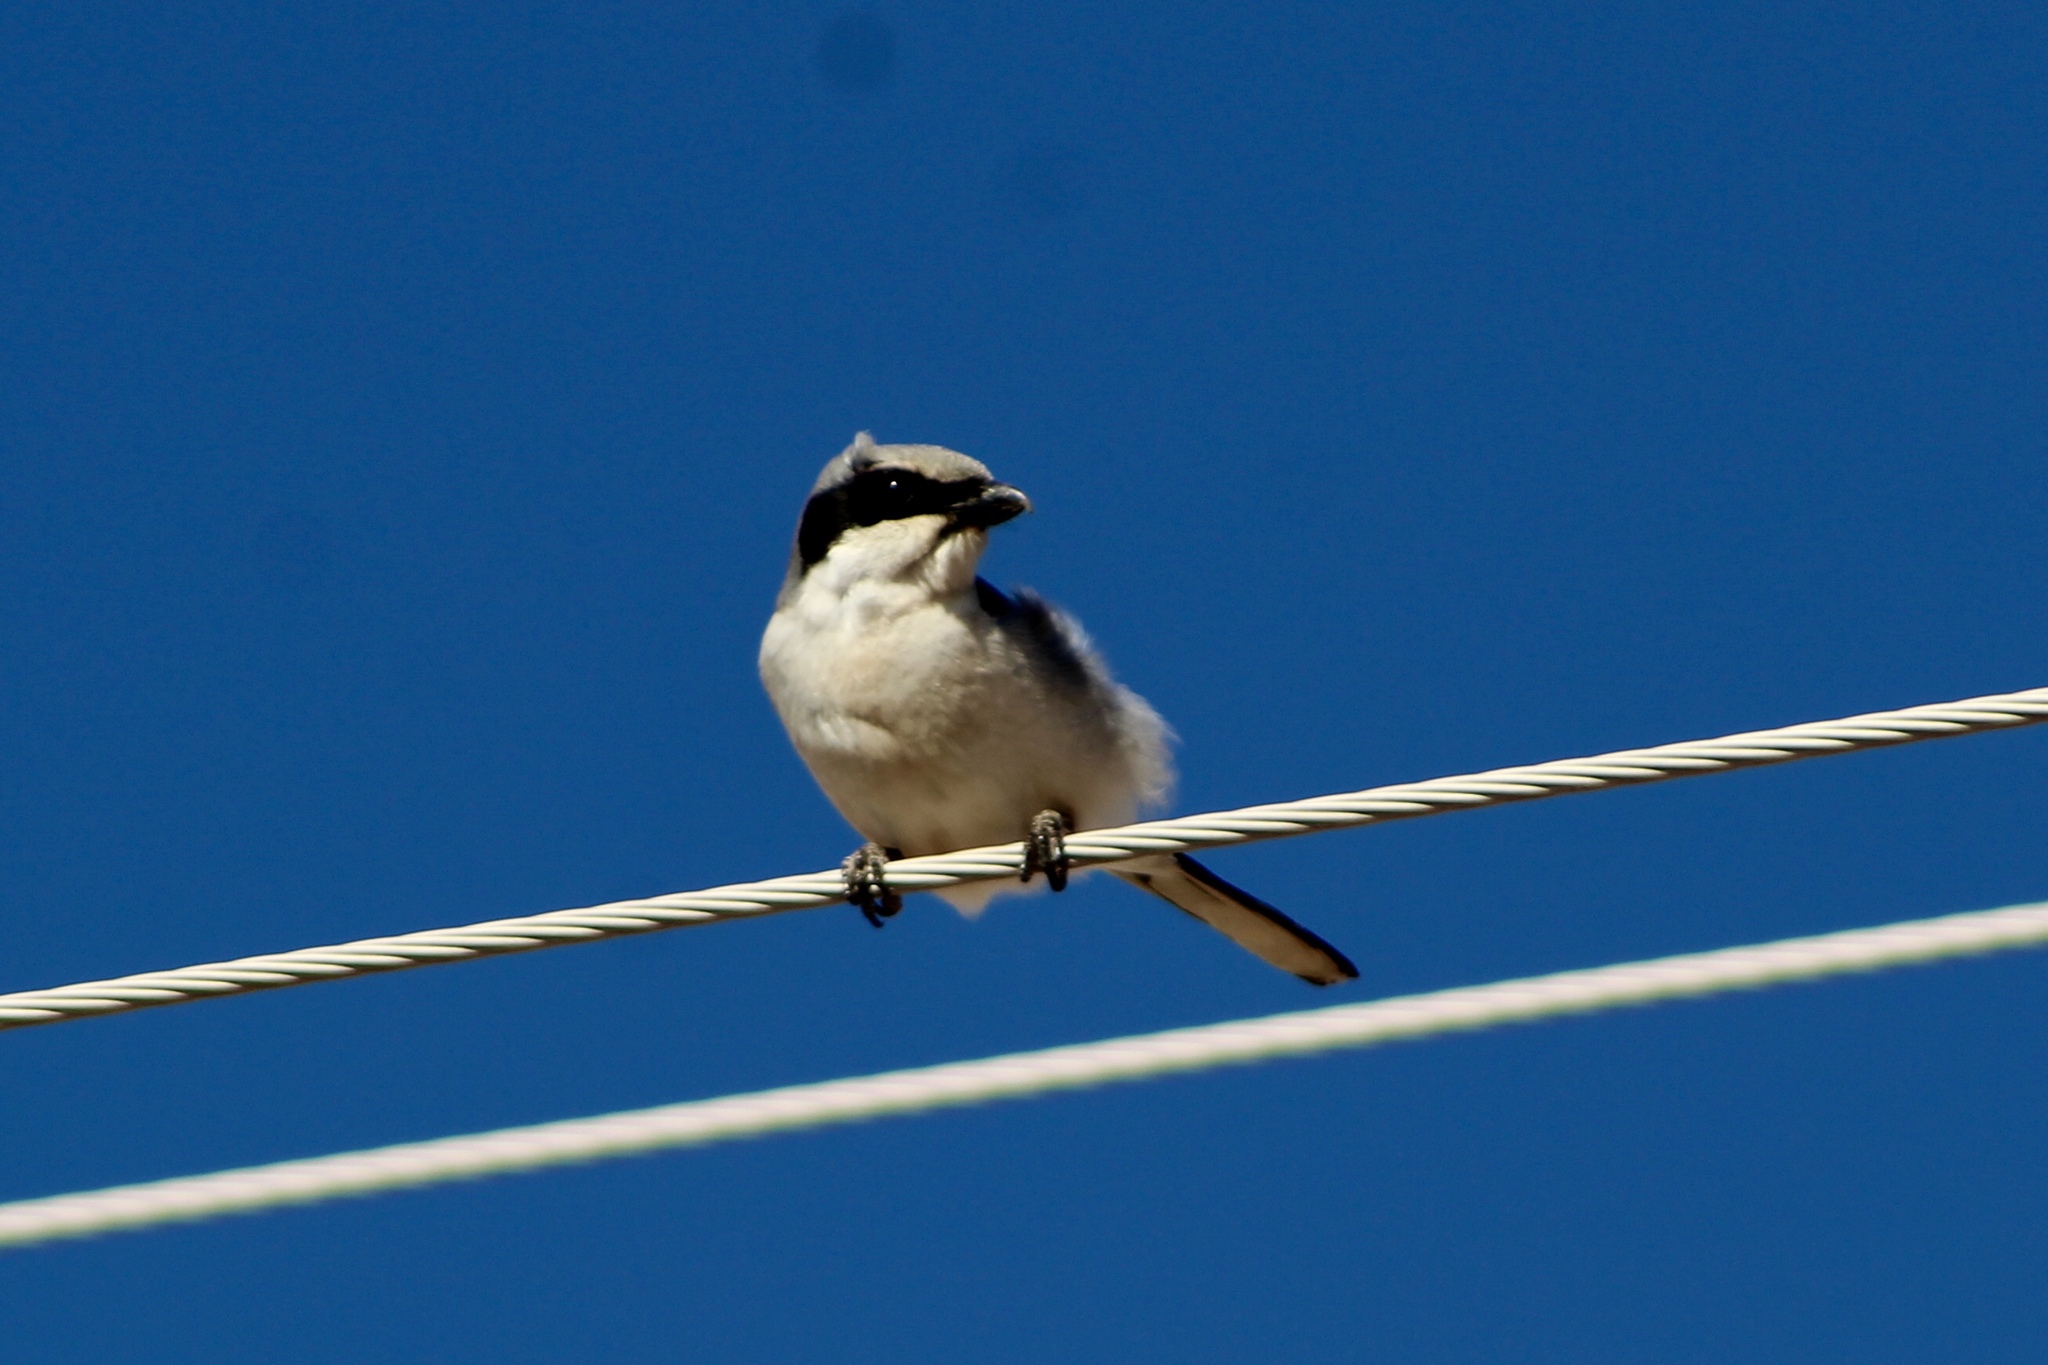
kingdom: Animalia
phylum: Chordata
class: Aves
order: Passeriformes
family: Laniidae
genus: Lanius
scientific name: Lanius ludovicianus
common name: Loggerhead shrike
